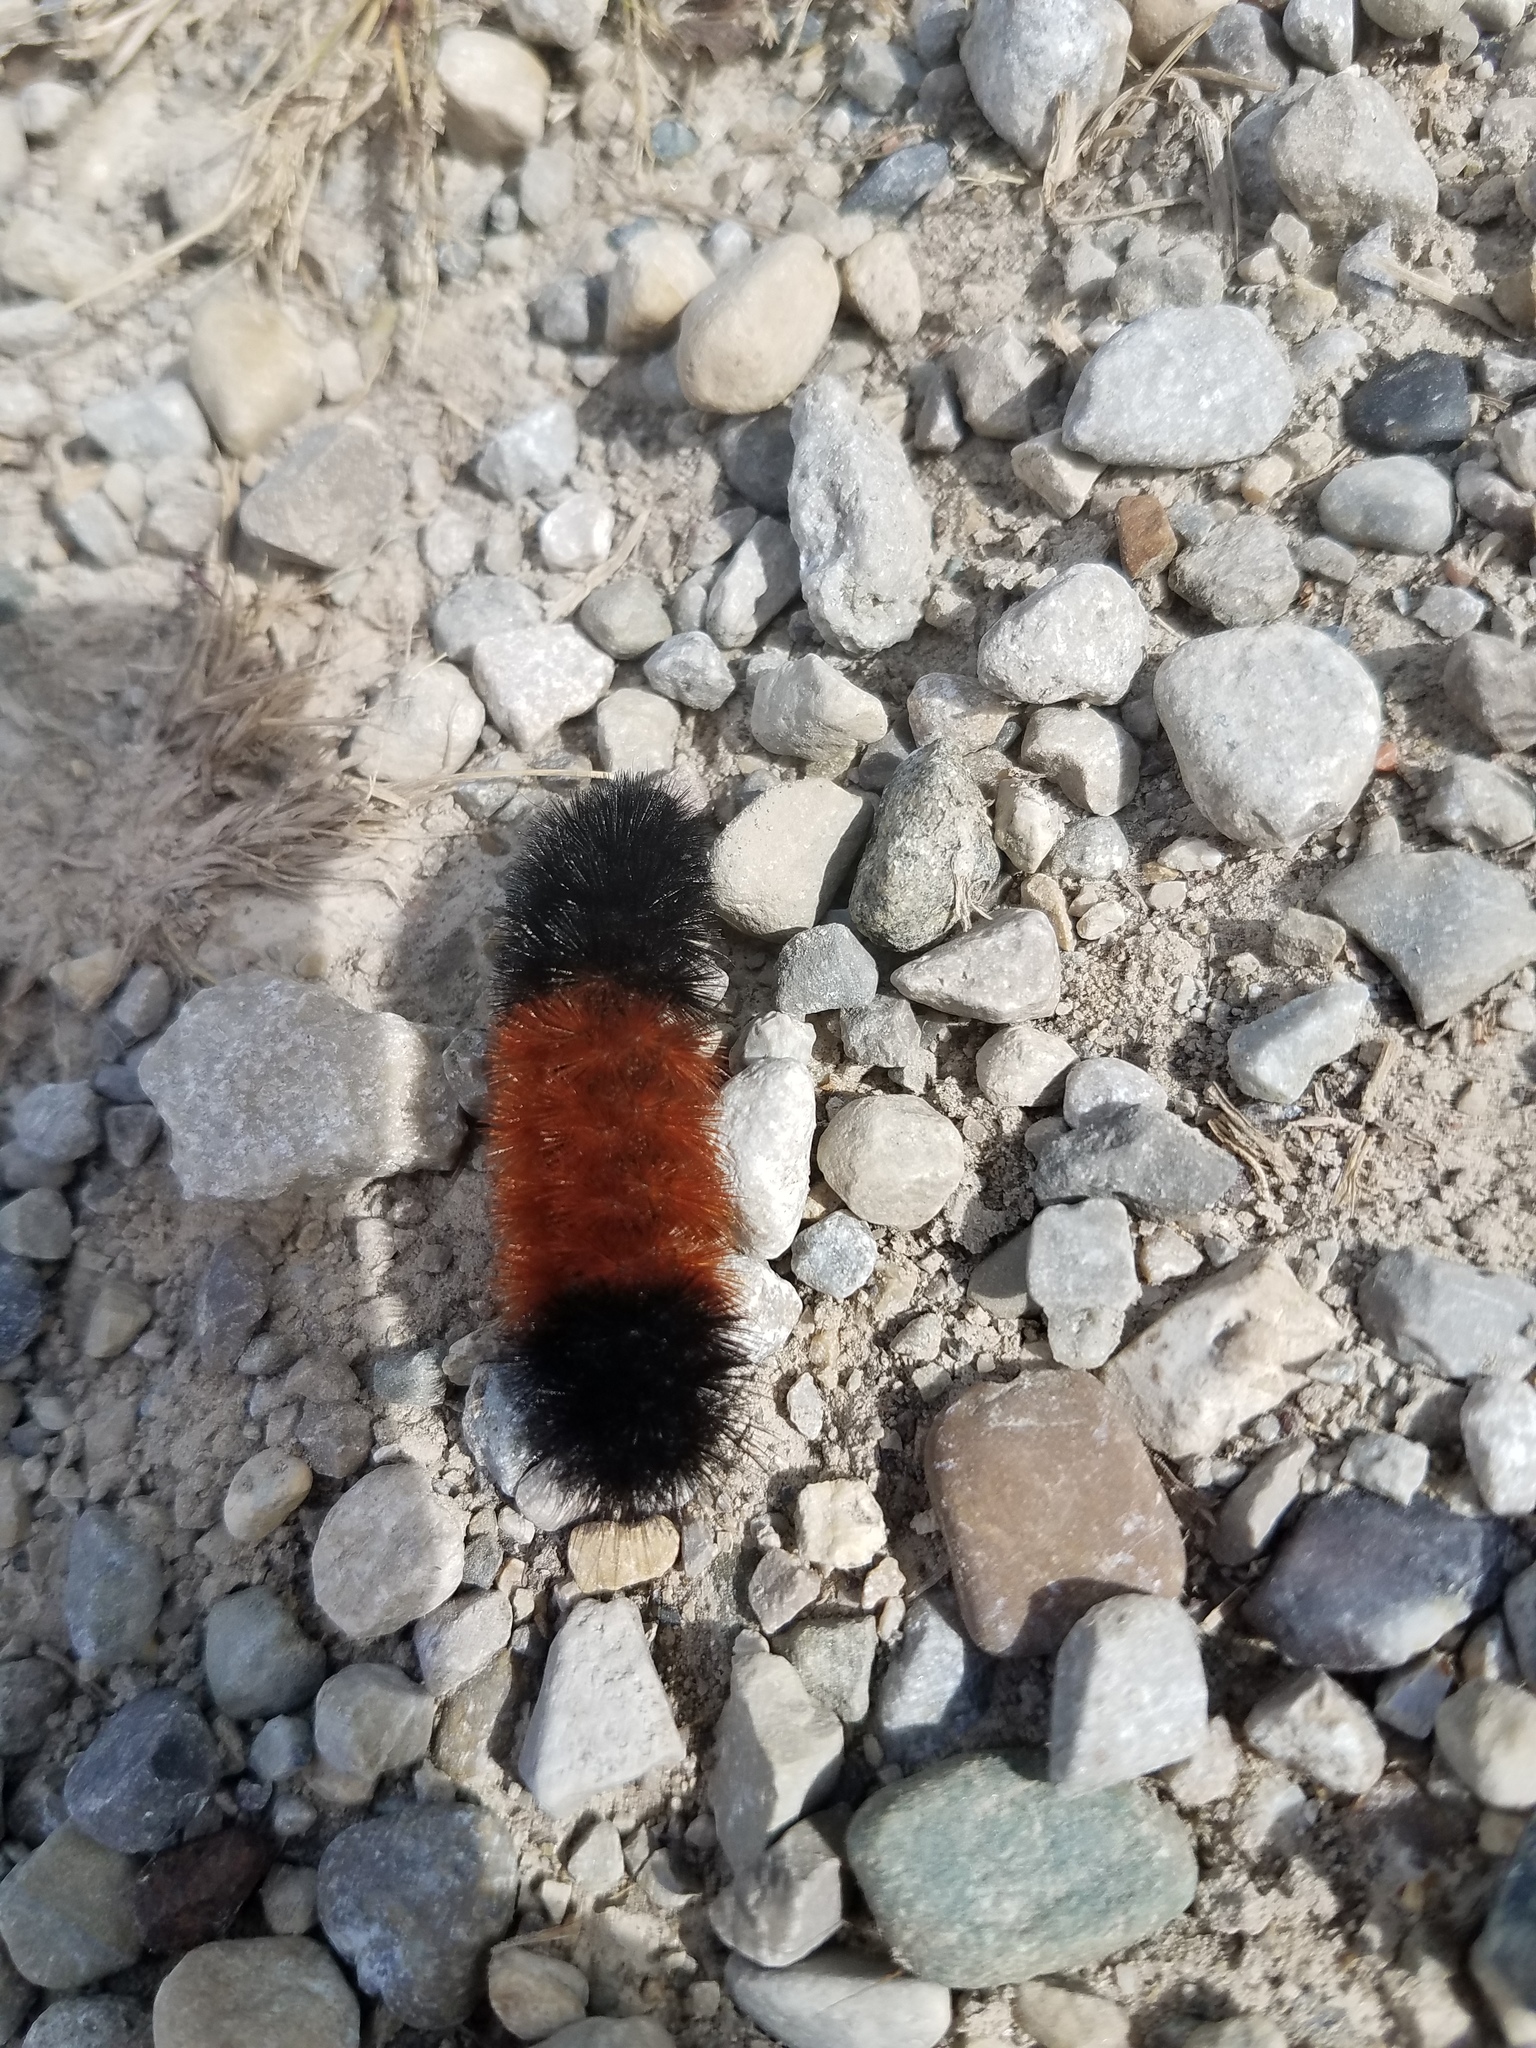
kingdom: Animalia
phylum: Arthropoda
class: Insecta
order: Lepidoptera
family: Erebidae
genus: Pyrrharctia
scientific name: Pyrrharctia isabella
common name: Isabella tiger moth
